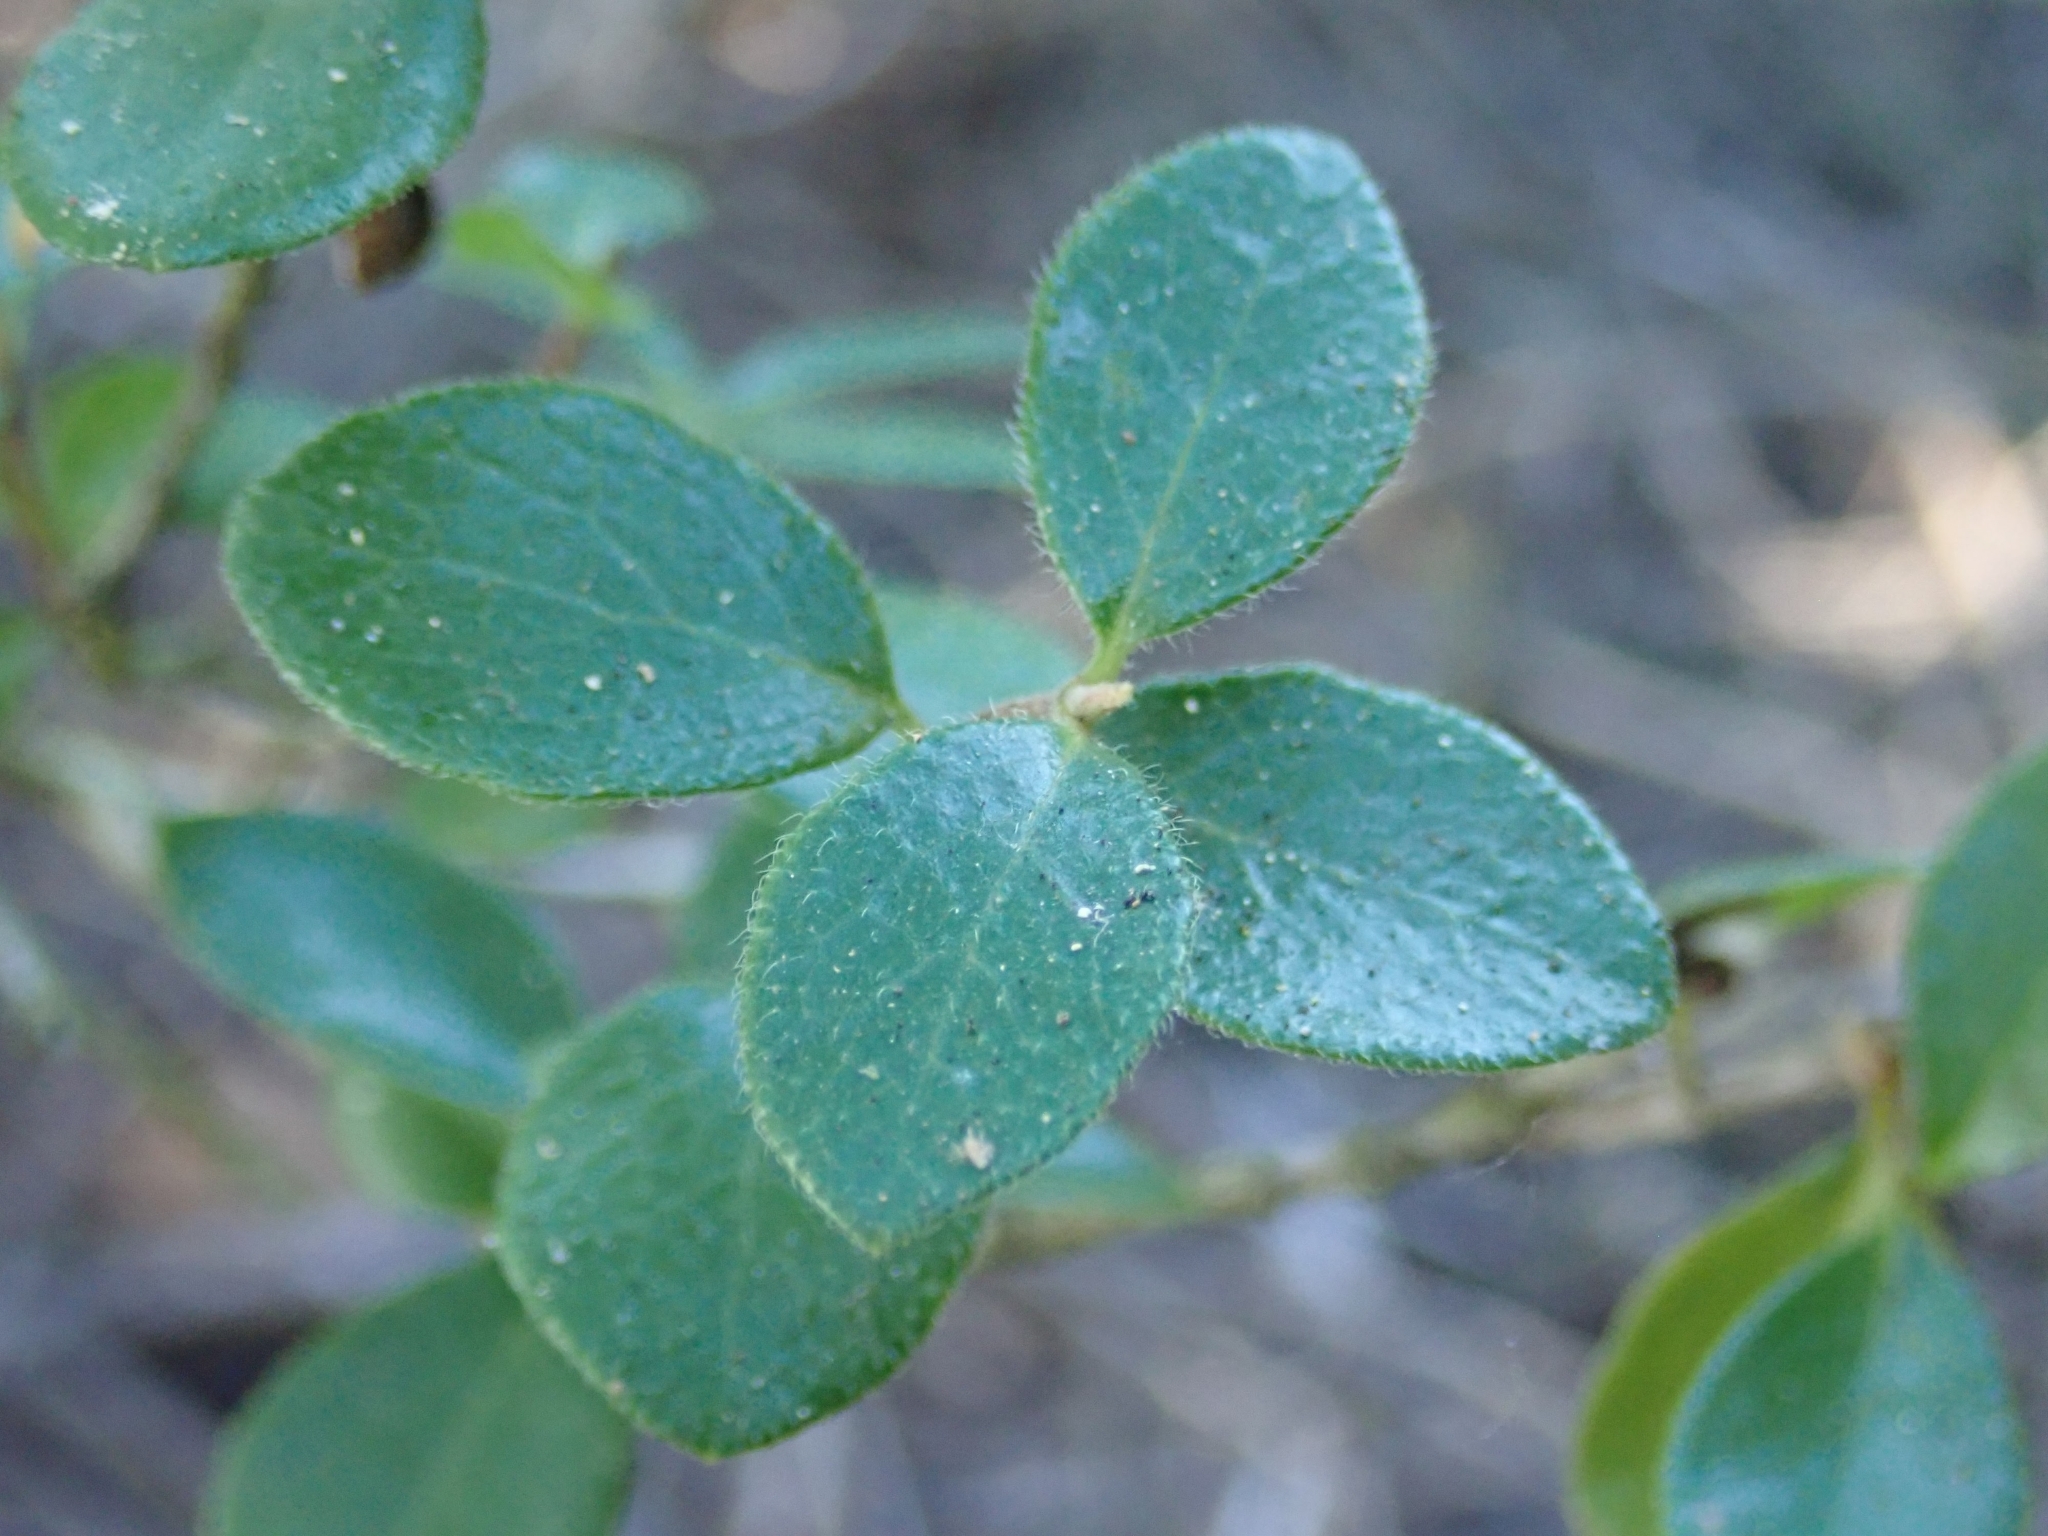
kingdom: Plantae
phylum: Tracheophyta
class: Magnoliopsida
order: Dipsacales
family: Caprifoliaceae
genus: Lonicera
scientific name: Lonicera subspicata
